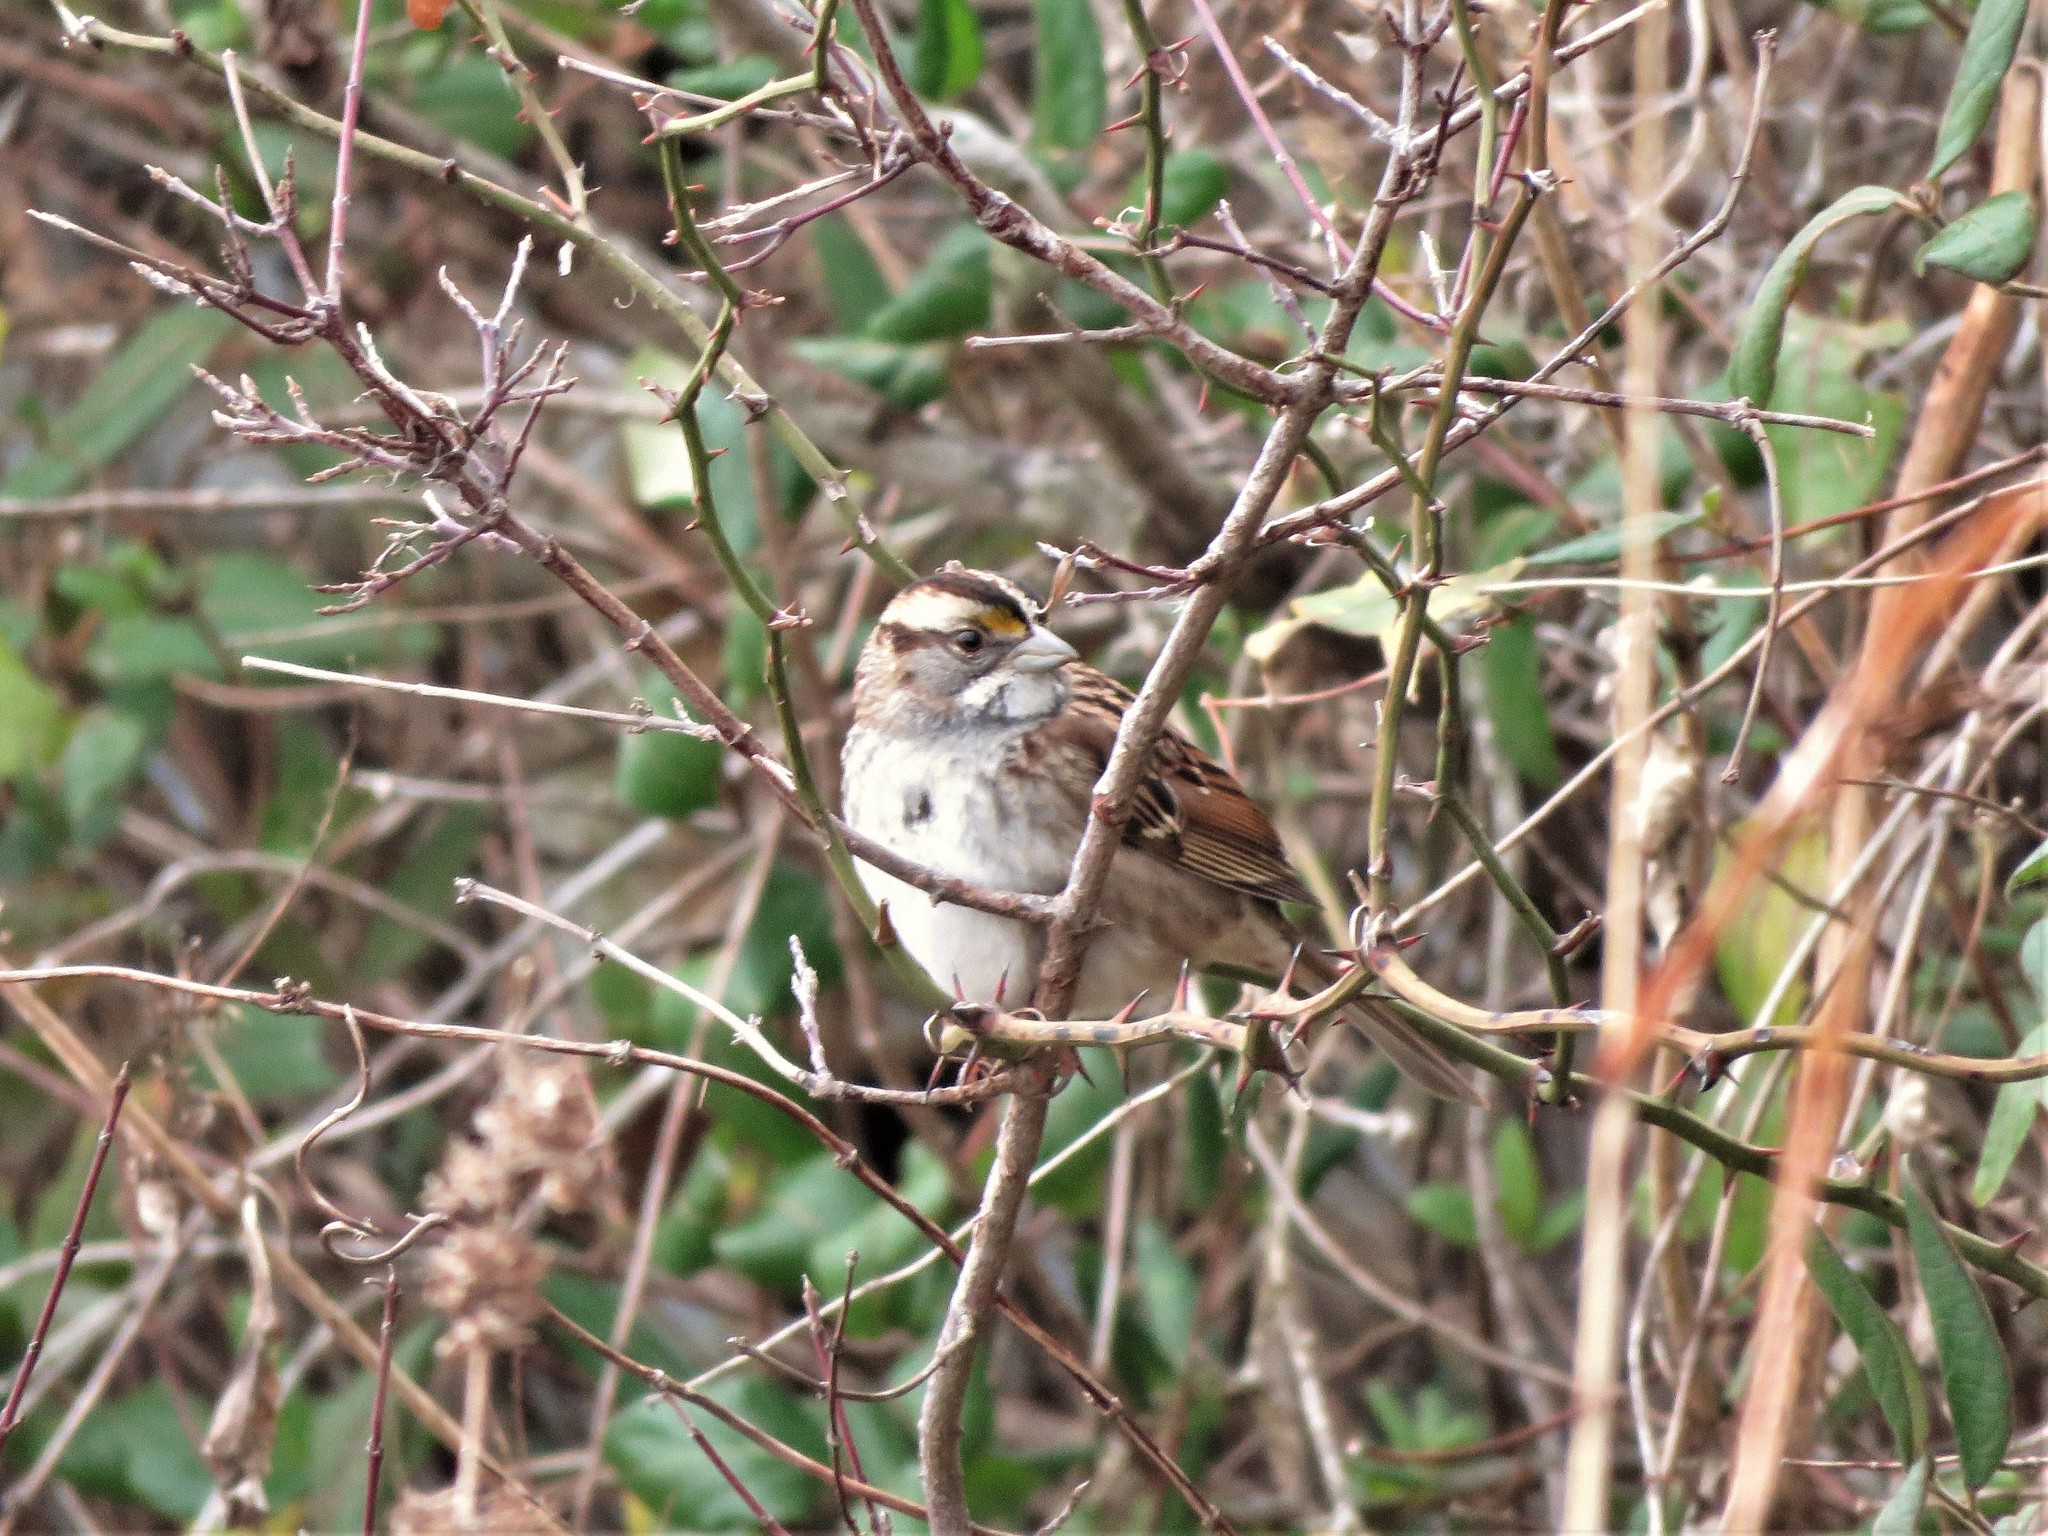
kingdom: Animalia
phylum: Chordata
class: Aves
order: Passeriformes
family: Passerellidae
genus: Zonotrichia
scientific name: Zonotrichia albicollis
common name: White-throated sparrow
